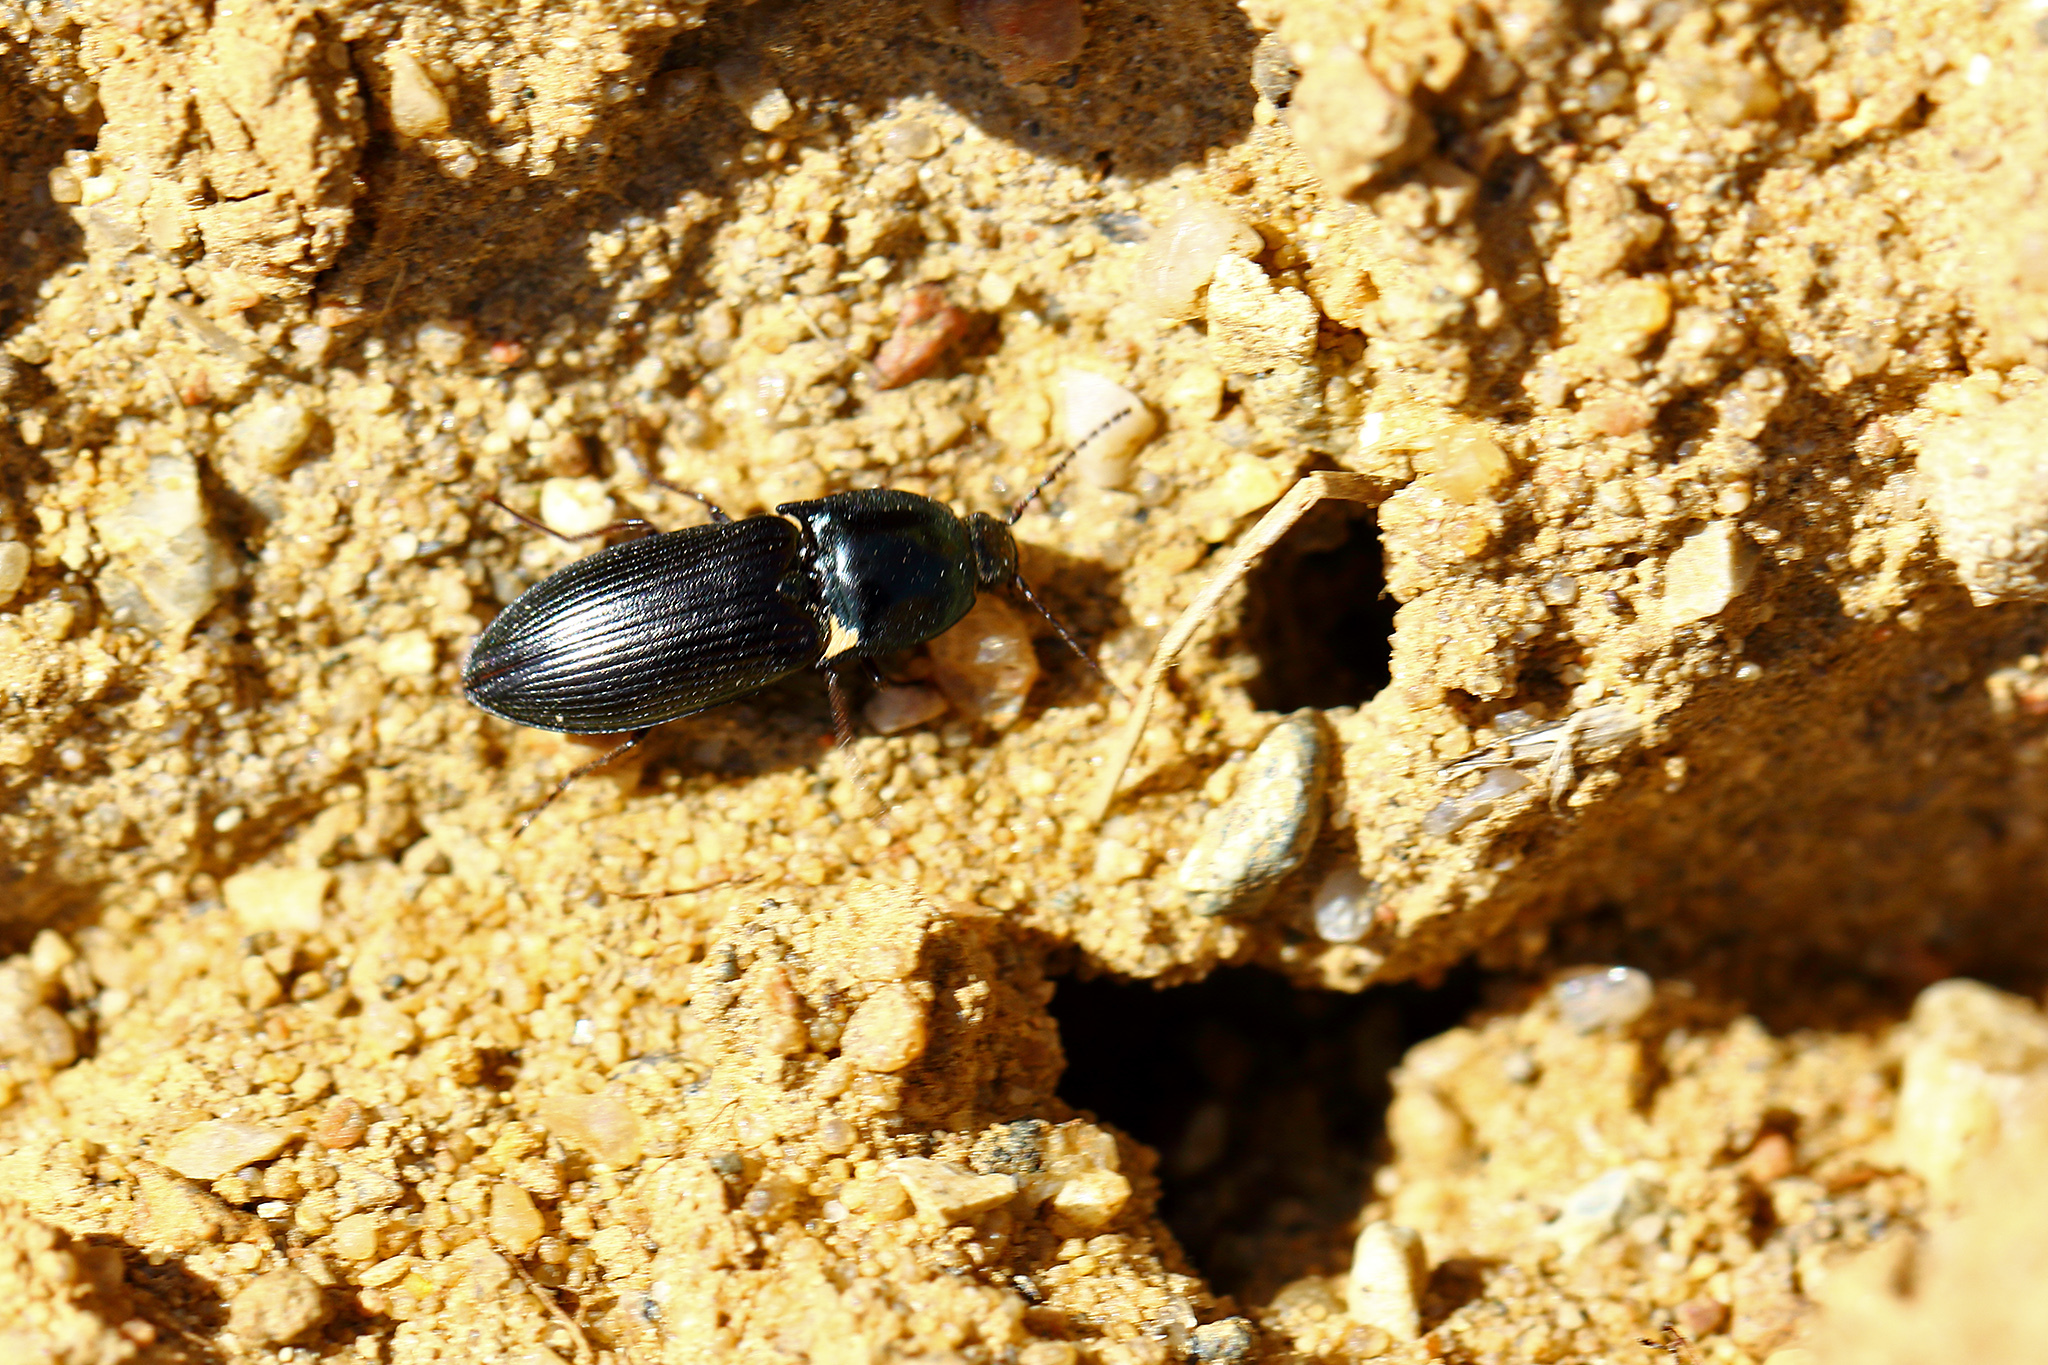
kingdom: Animalia
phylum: Arthropoda
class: Insecta
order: Coleoptera
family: Elateridae
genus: Selatosomus
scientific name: Selatosomus aeneus
